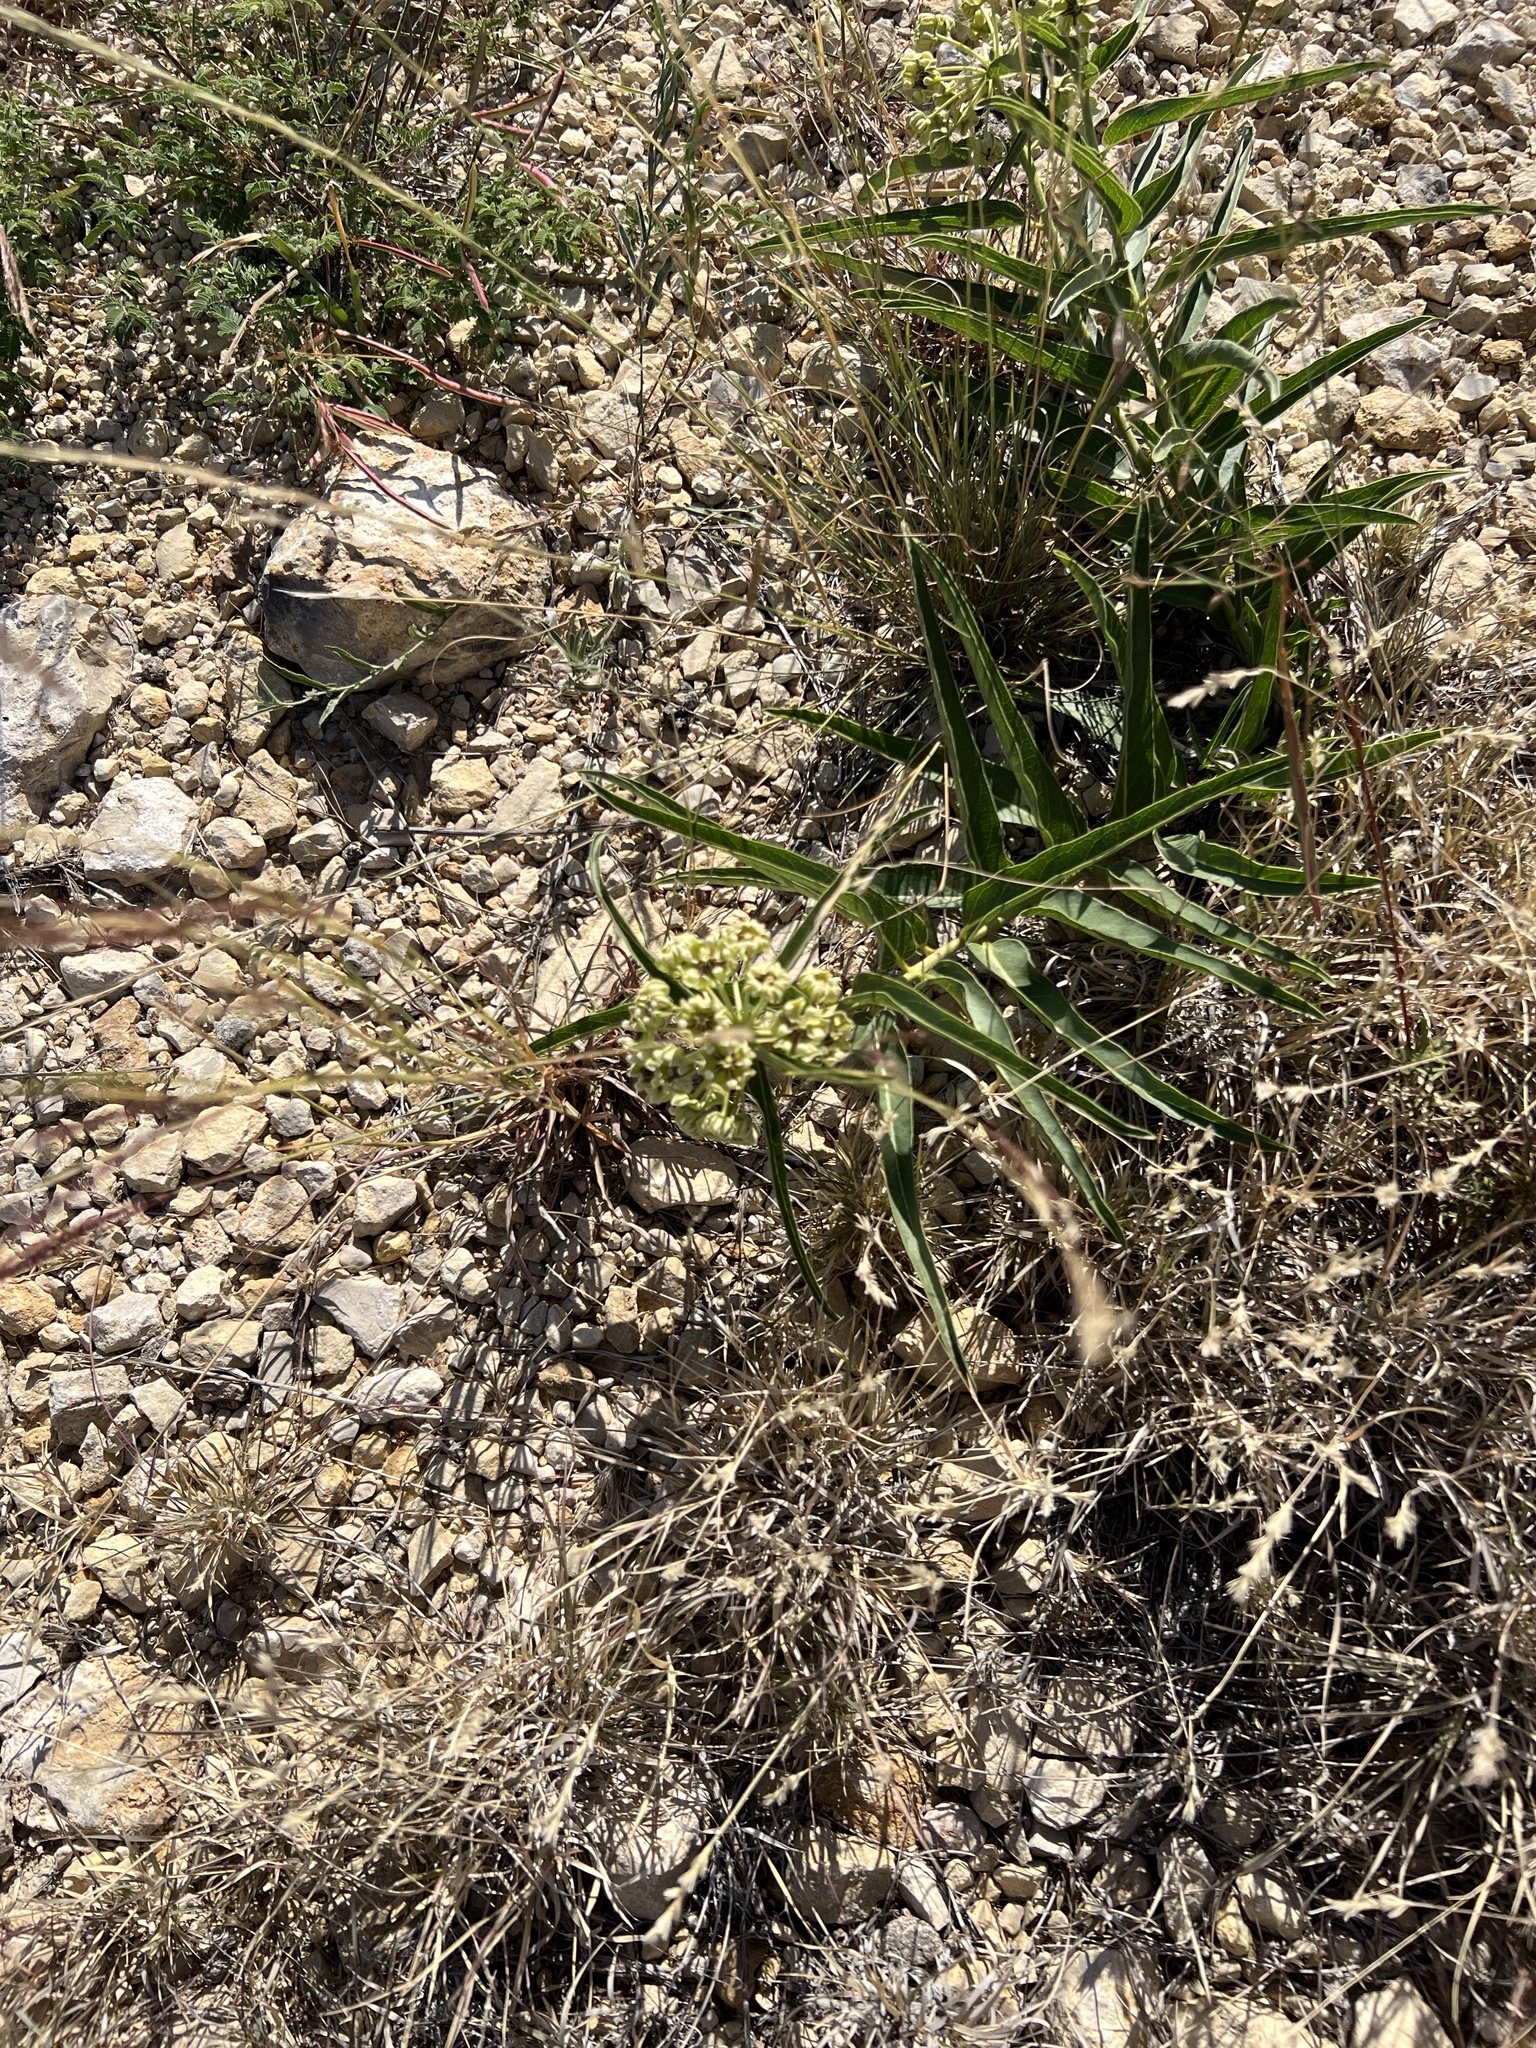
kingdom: Plantae
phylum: Tracheophyta
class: Magnoliopsida
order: Gentianales
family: Apocynaceae
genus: Asclepias
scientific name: Asclepias asperula
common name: Antelope horns
